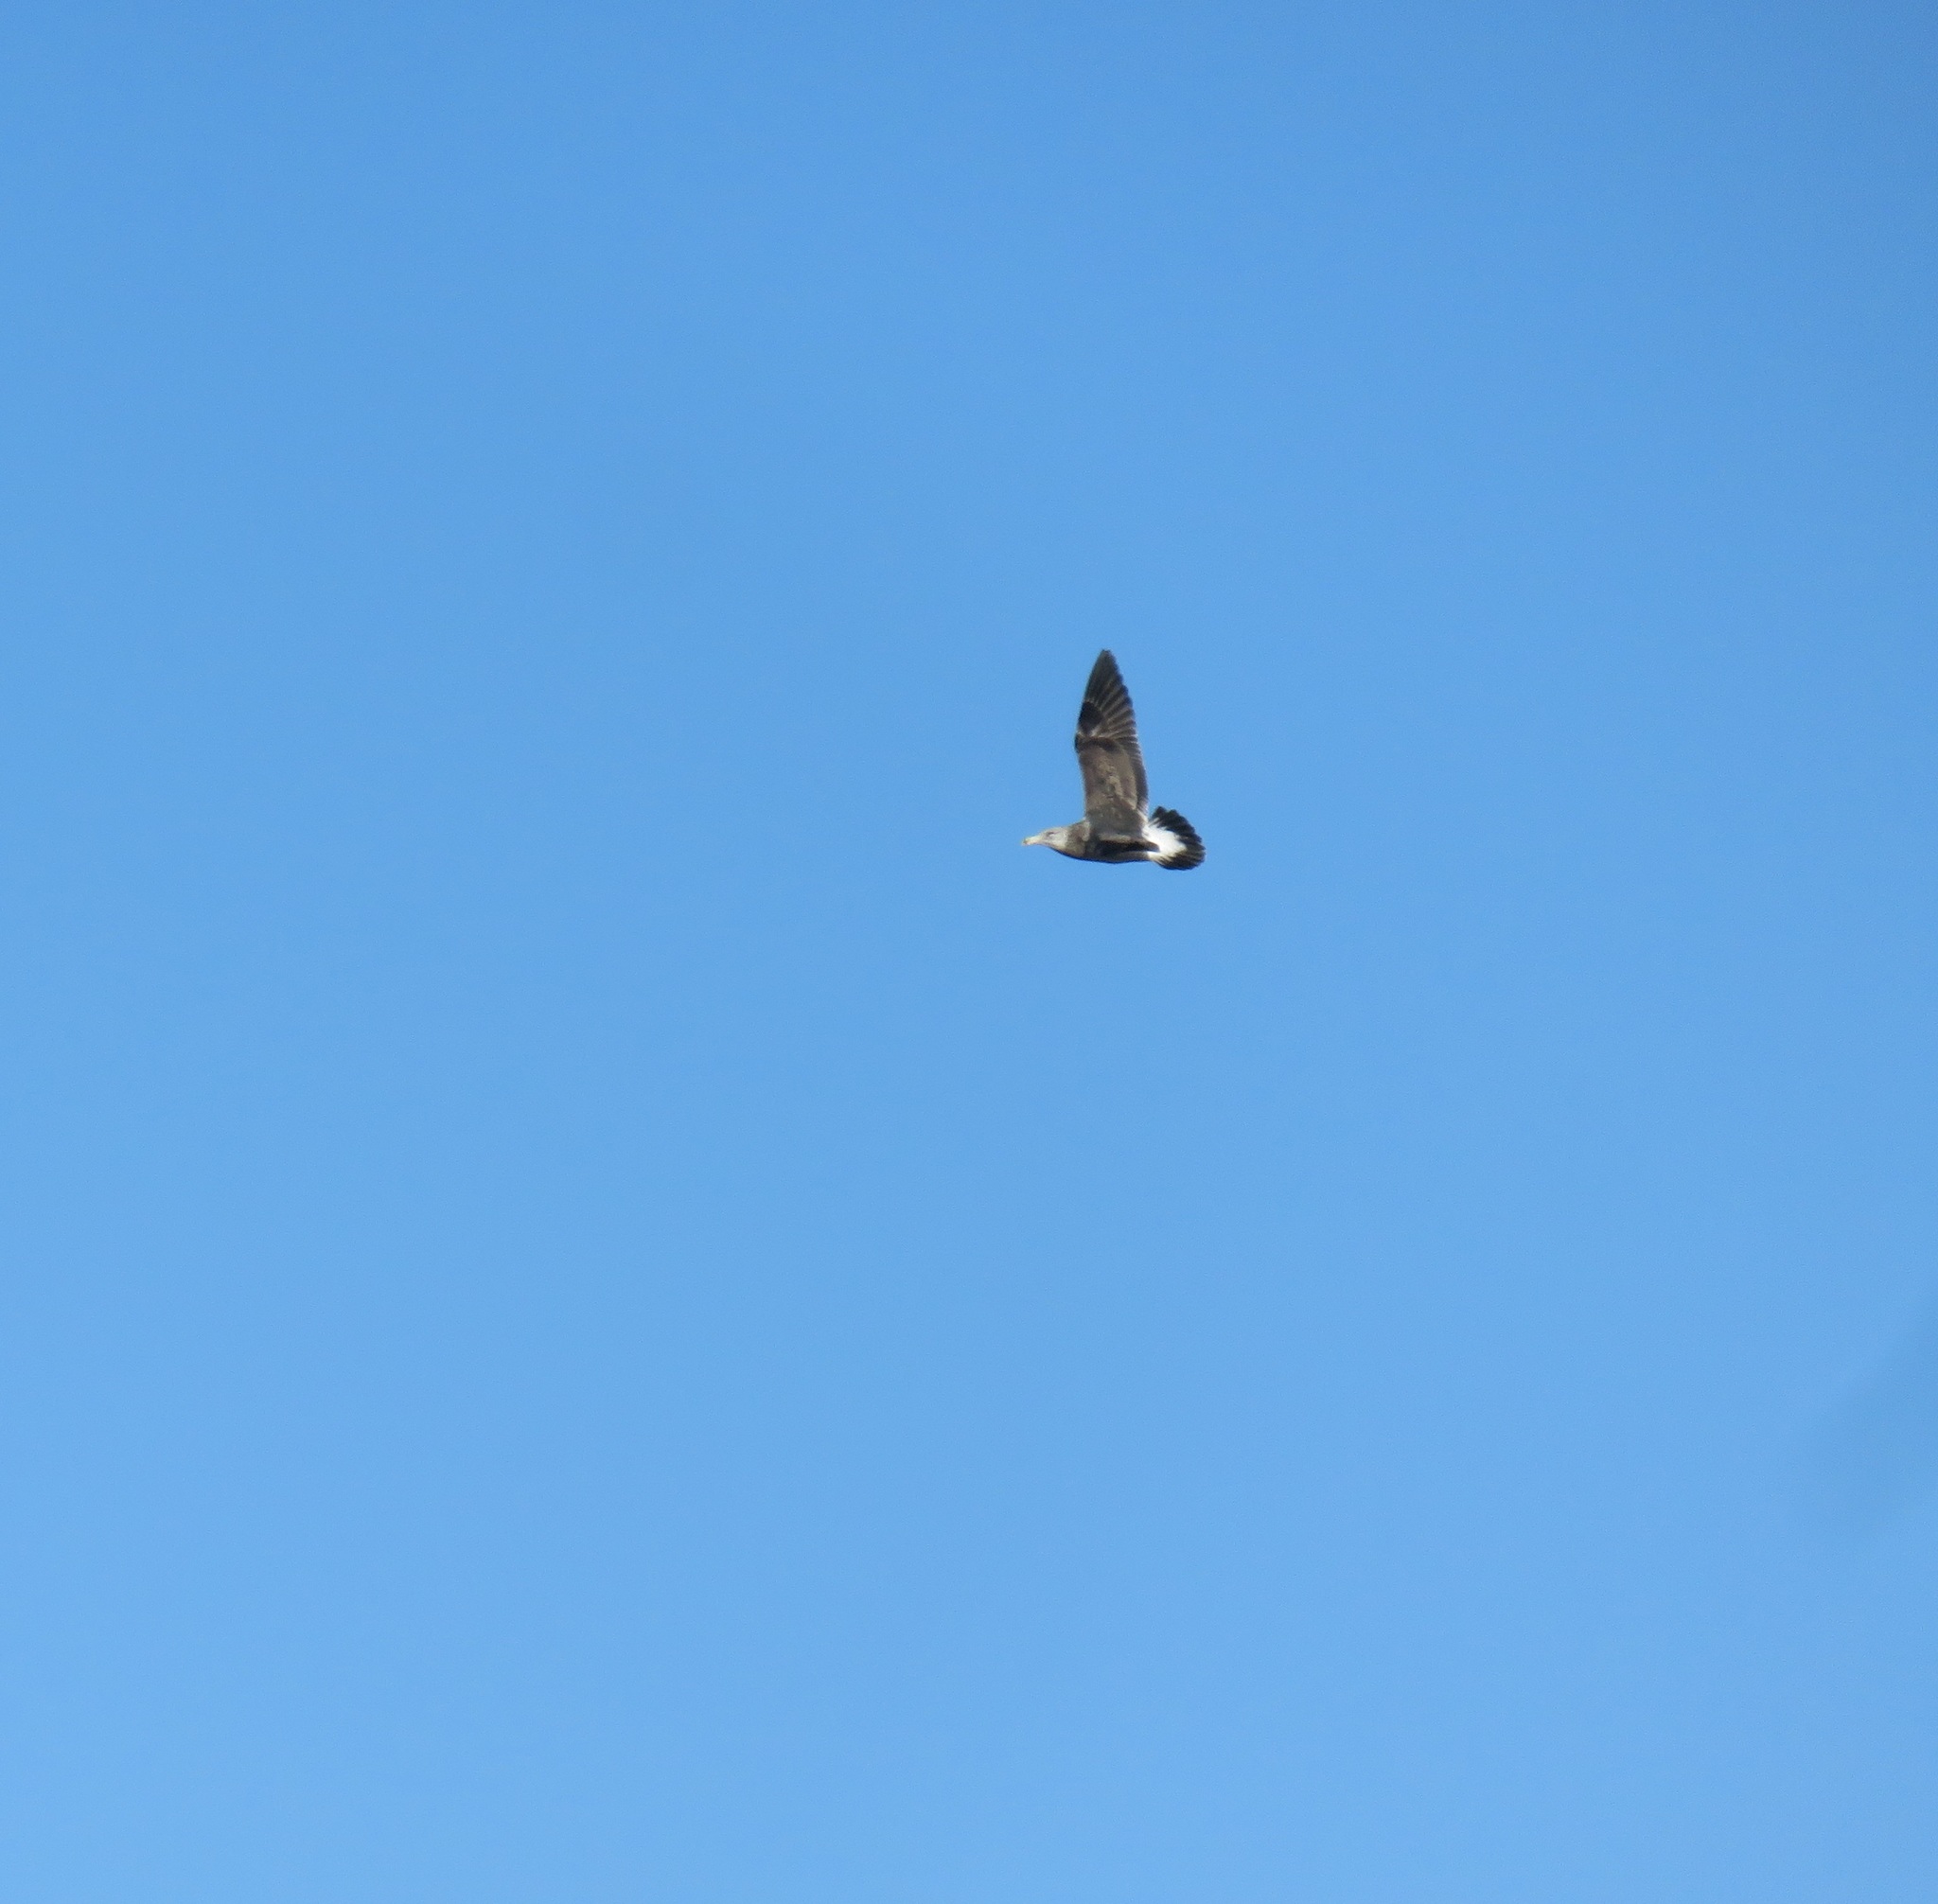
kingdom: Animalia
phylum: Chordata
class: Aves
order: Charadriiformes
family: Laridae
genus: Larus
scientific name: Larus dominicanus
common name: Kelp gull
